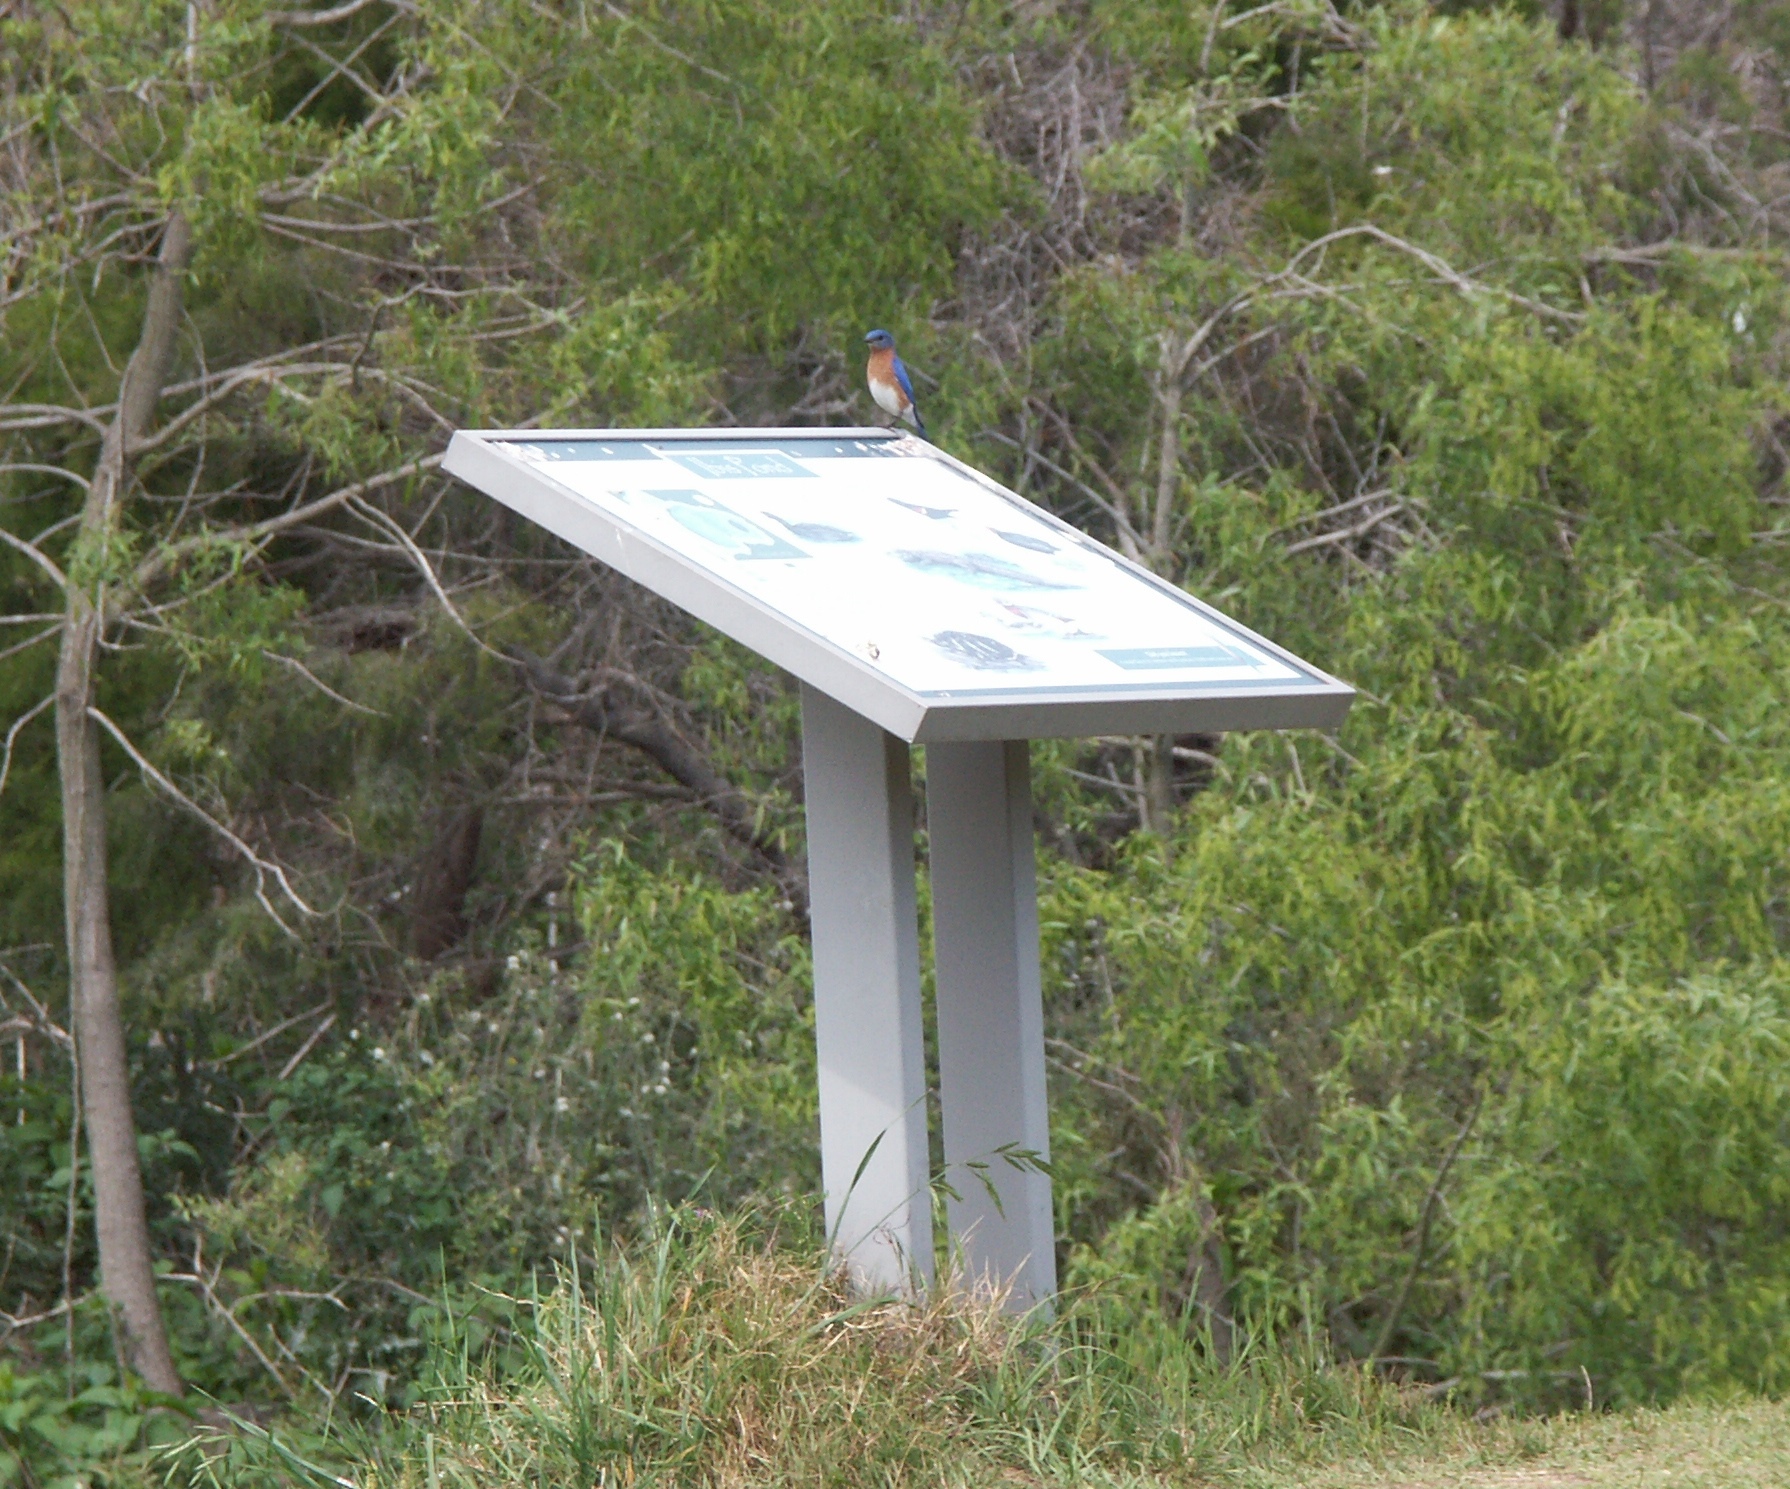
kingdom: Animalia
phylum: Chordata
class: Aves
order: Passeriformes
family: Turdidae
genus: Sialia
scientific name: Sialia sialis
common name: Eastern bluebird
